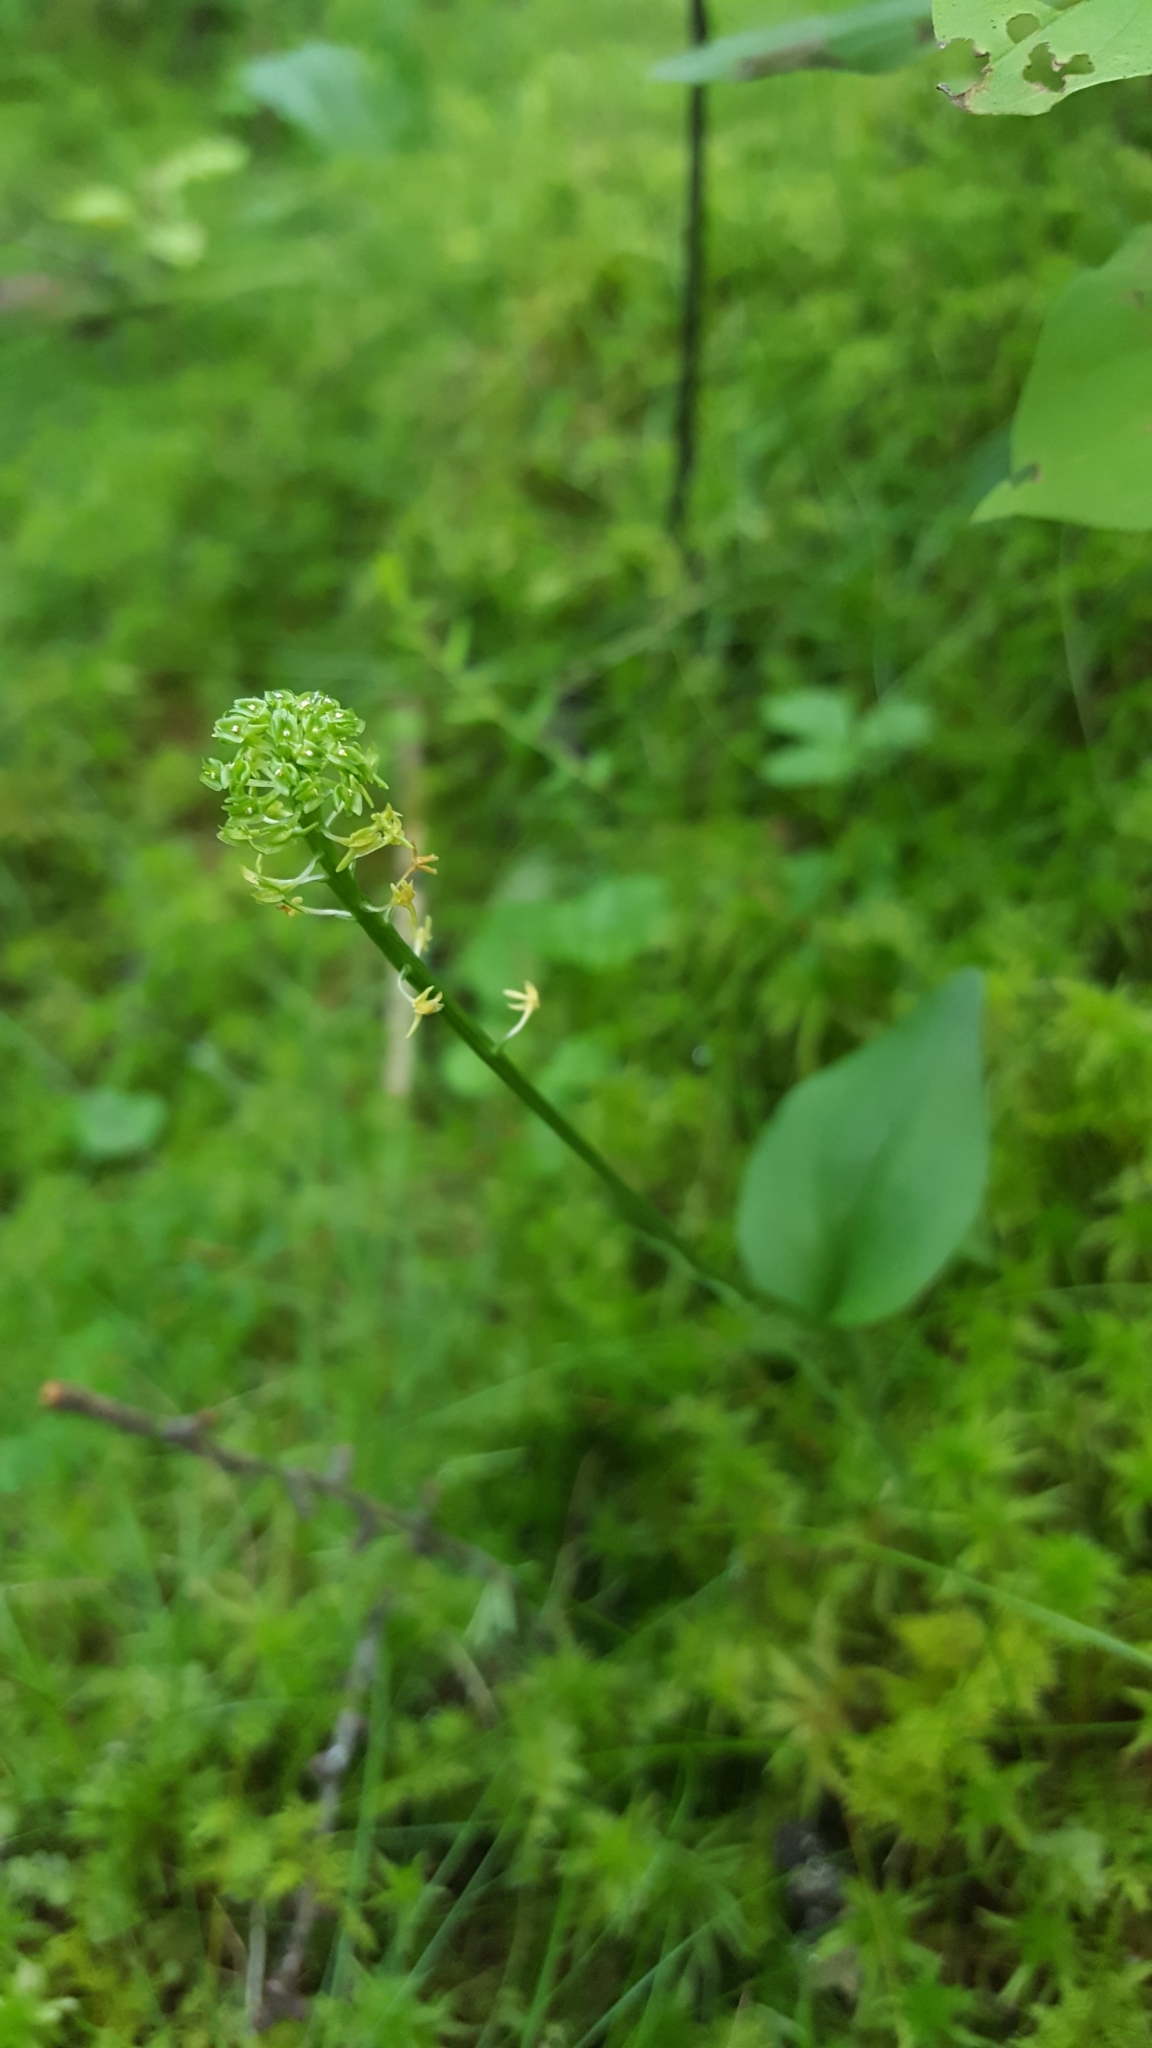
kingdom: Plantae
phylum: Tracheophyta
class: Liliopsida
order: Asparagales
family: Orchidaceae
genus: Malaxis
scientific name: Malaxis unifolia
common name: Green adder's-mouth
